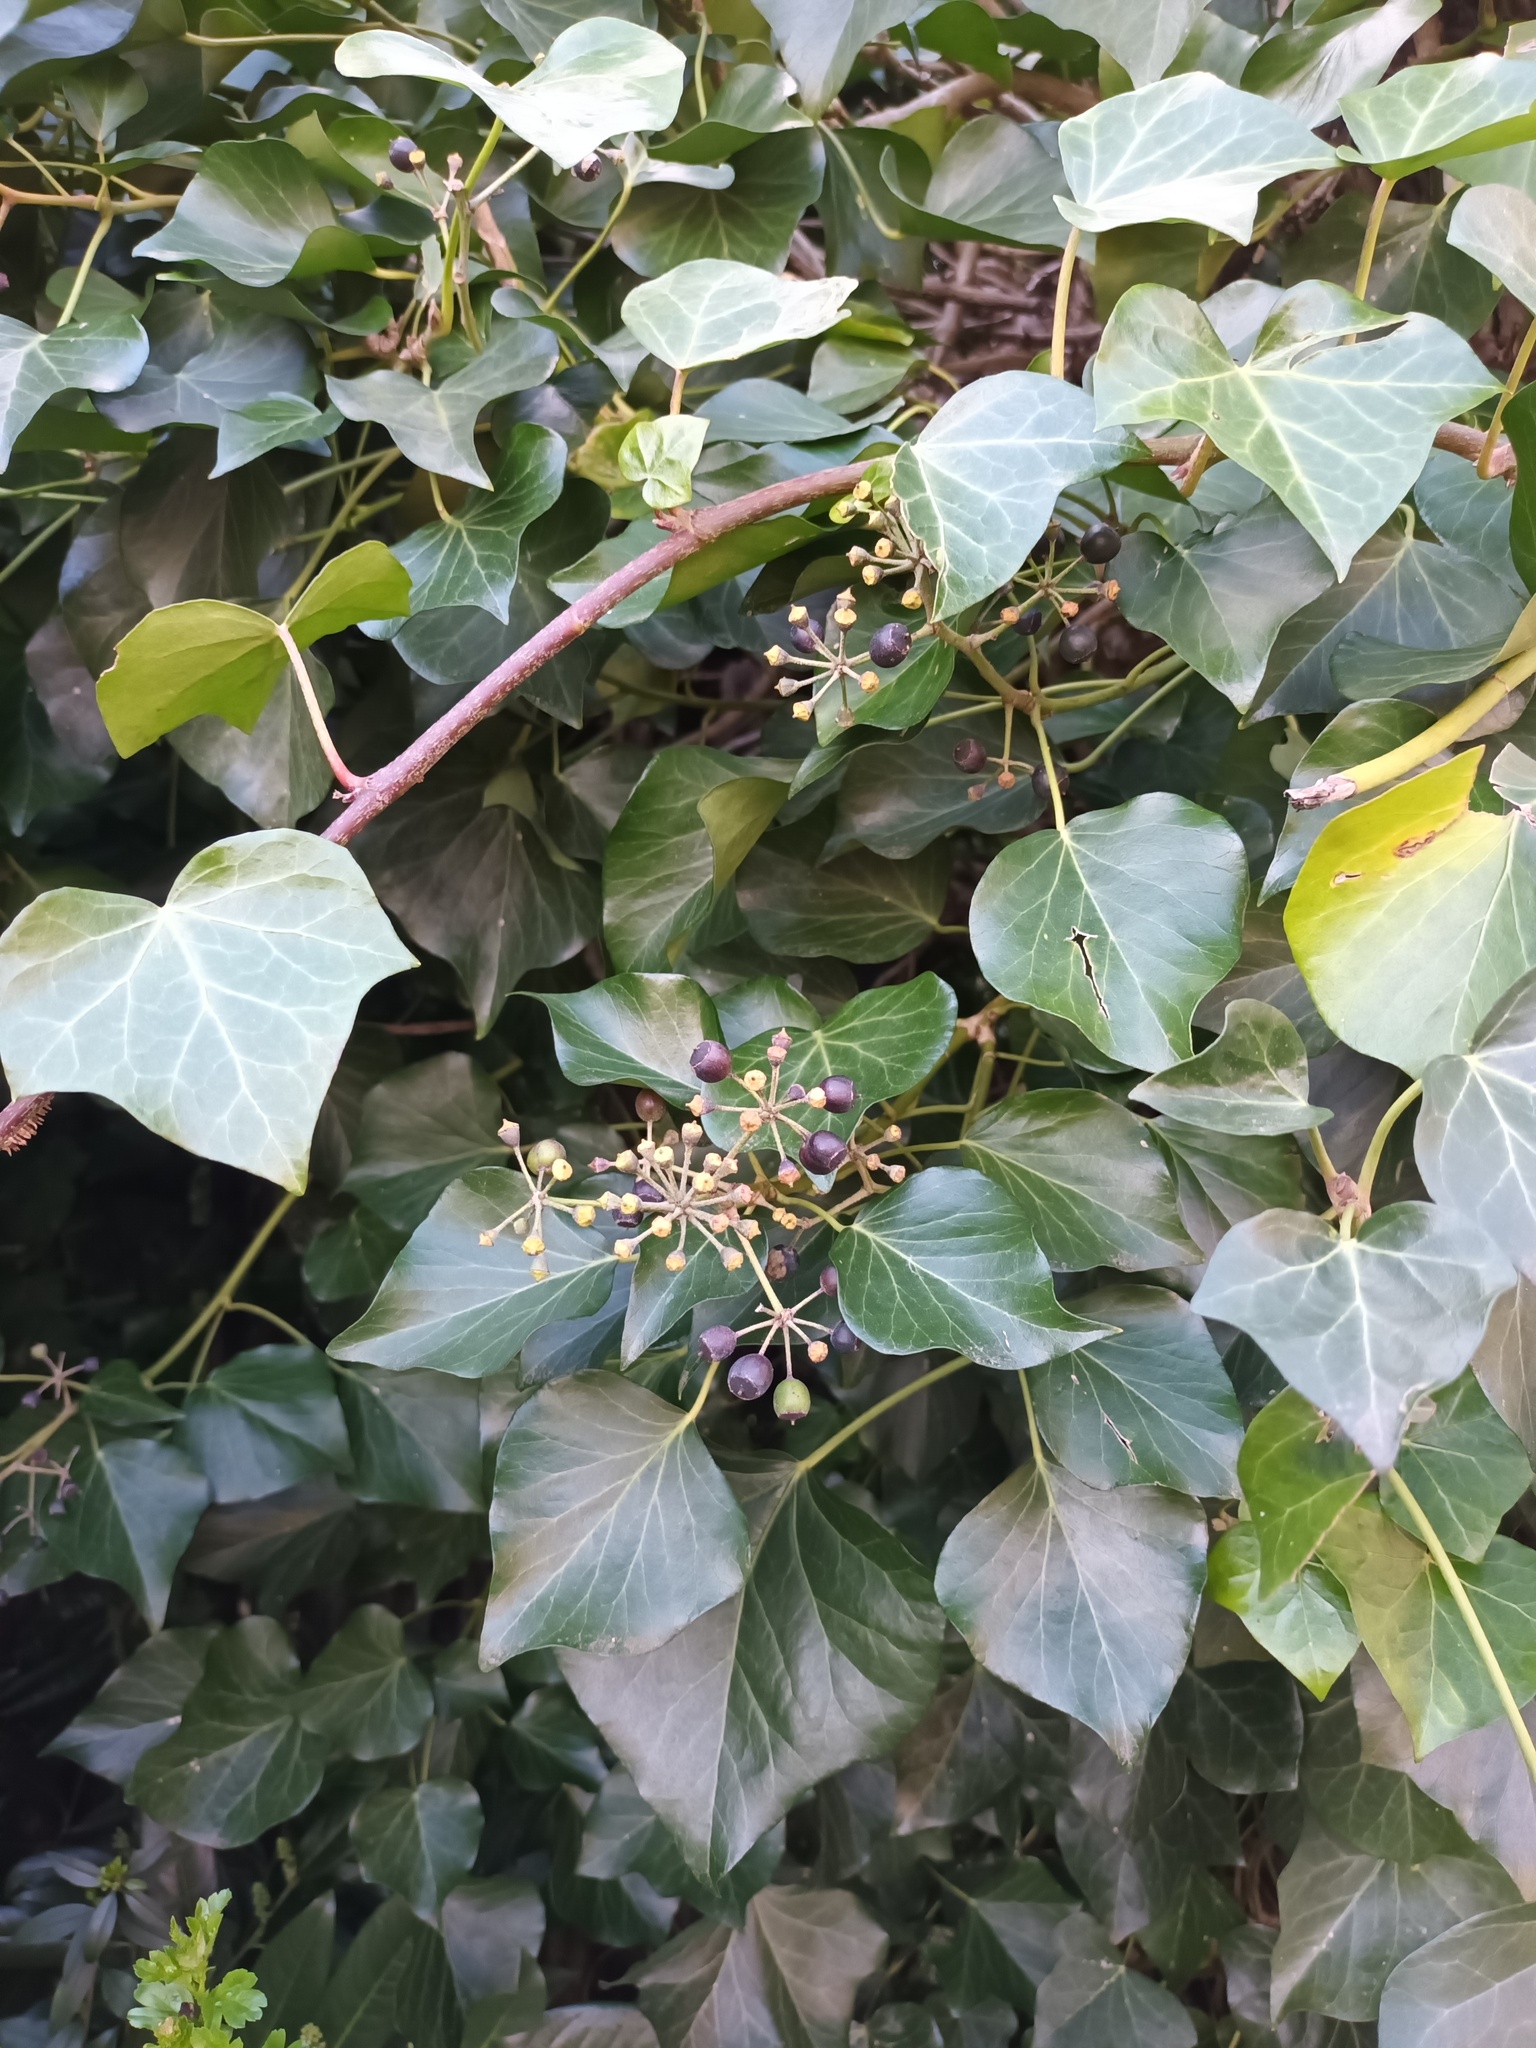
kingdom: Plantae
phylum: Tracheophyta
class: Magnoliopsida
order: Apiales
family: Araliaceae
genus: Hedera
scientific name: Hedera helix
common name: Ivy
